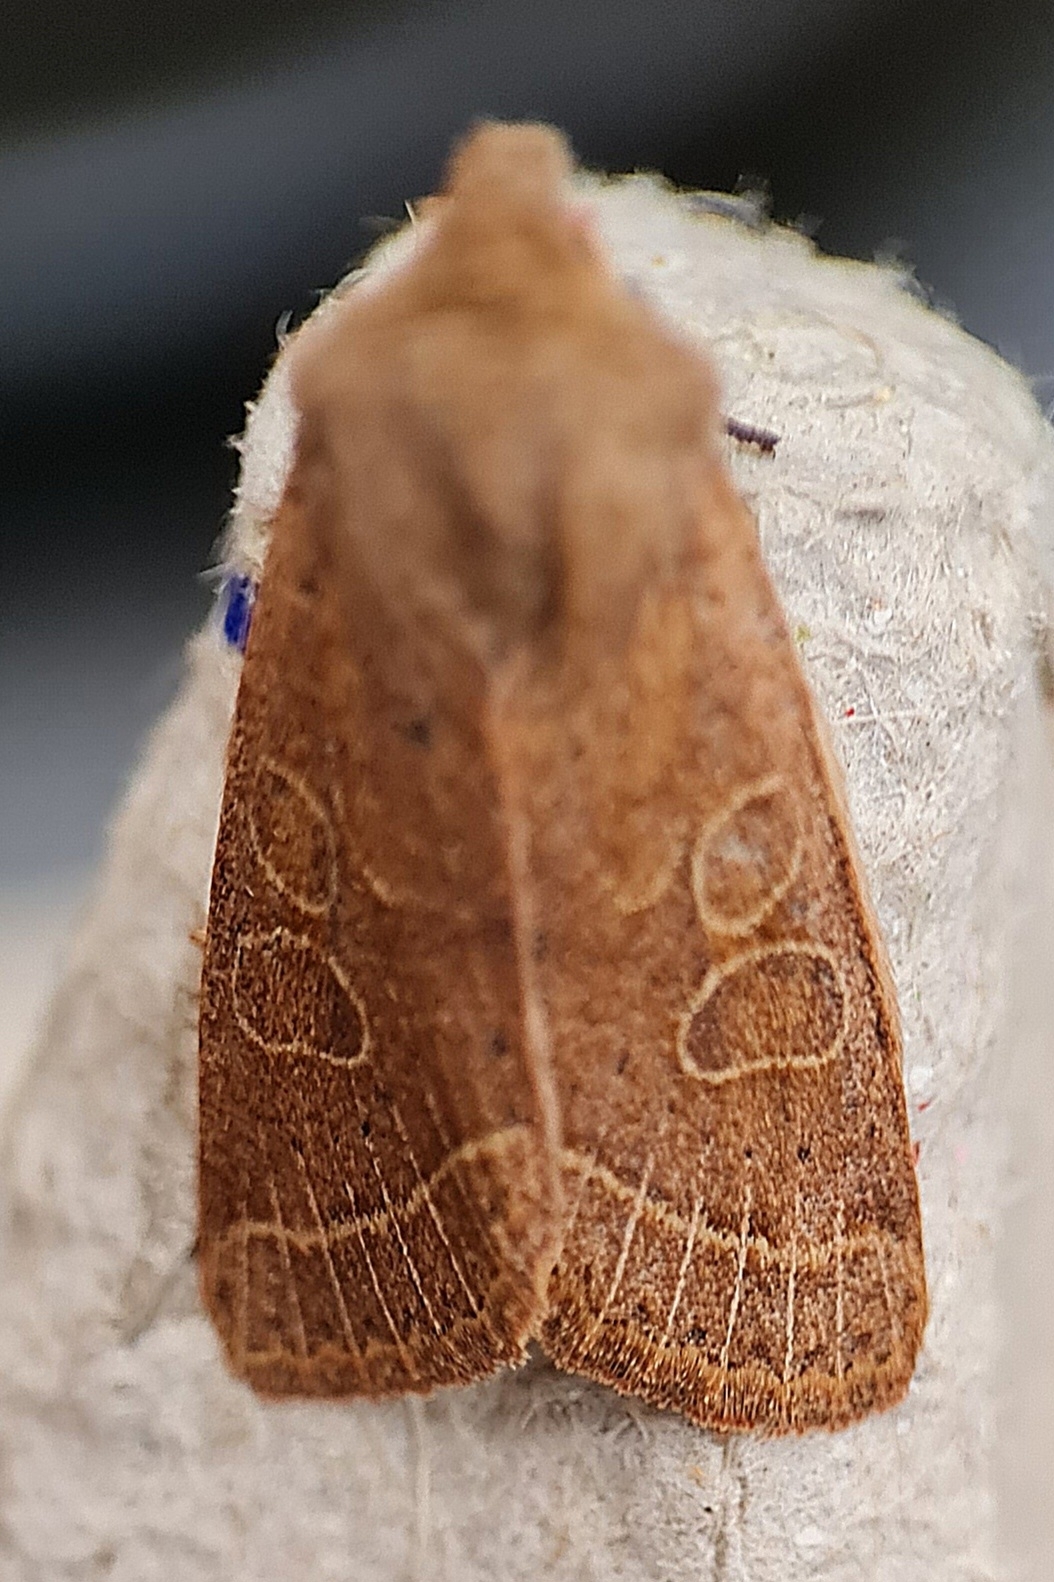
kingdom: Animalia
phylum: Arthropoda
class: Insecta
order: Lepidoptera
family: Noctuidae
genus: Orthosia
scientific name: Orthosia cerasi
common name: Common quaker
